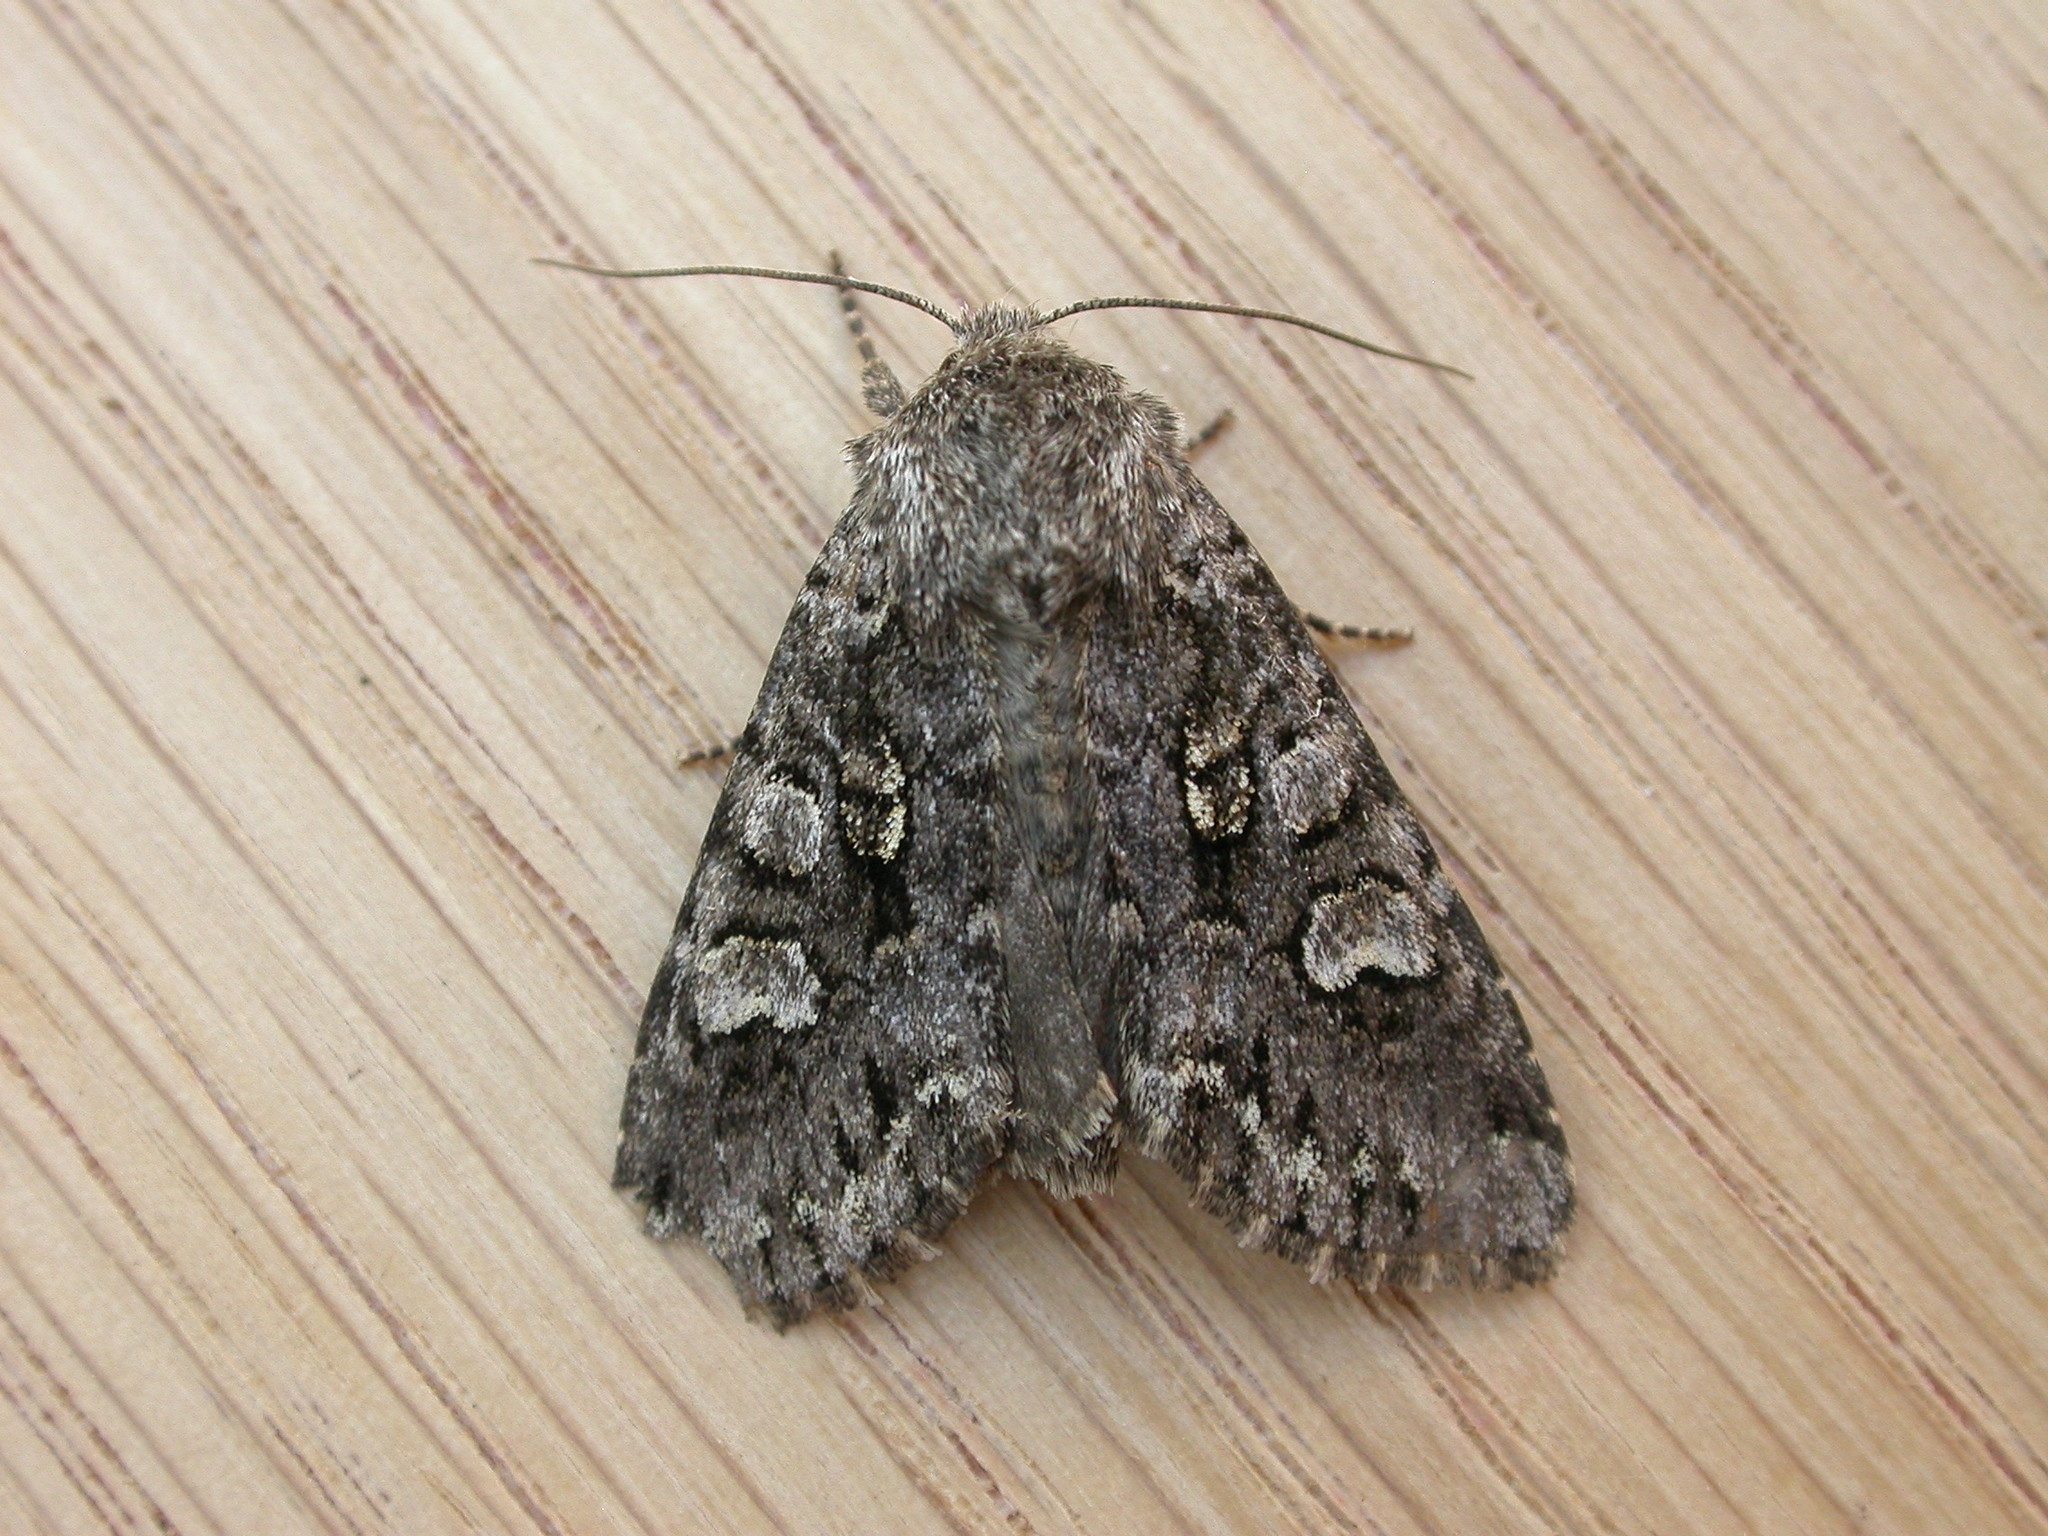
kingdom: Animalia
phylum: Arthropoda
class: Insecta
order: Lepidoptera
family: Noctuidae
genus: Papestra
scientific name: Papestra biren
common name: Glaucous shears
